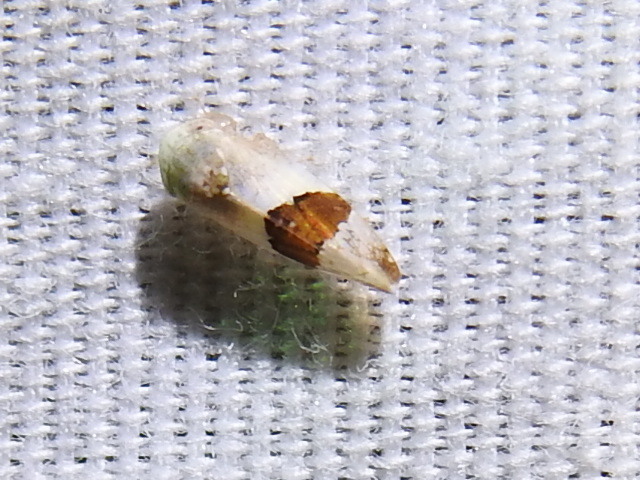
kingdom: Animalia
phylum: Arthropoda
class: Insecta
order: Hemiptera
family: Cicadellidae
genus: Norvellina
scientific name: Norvellina seminuda
